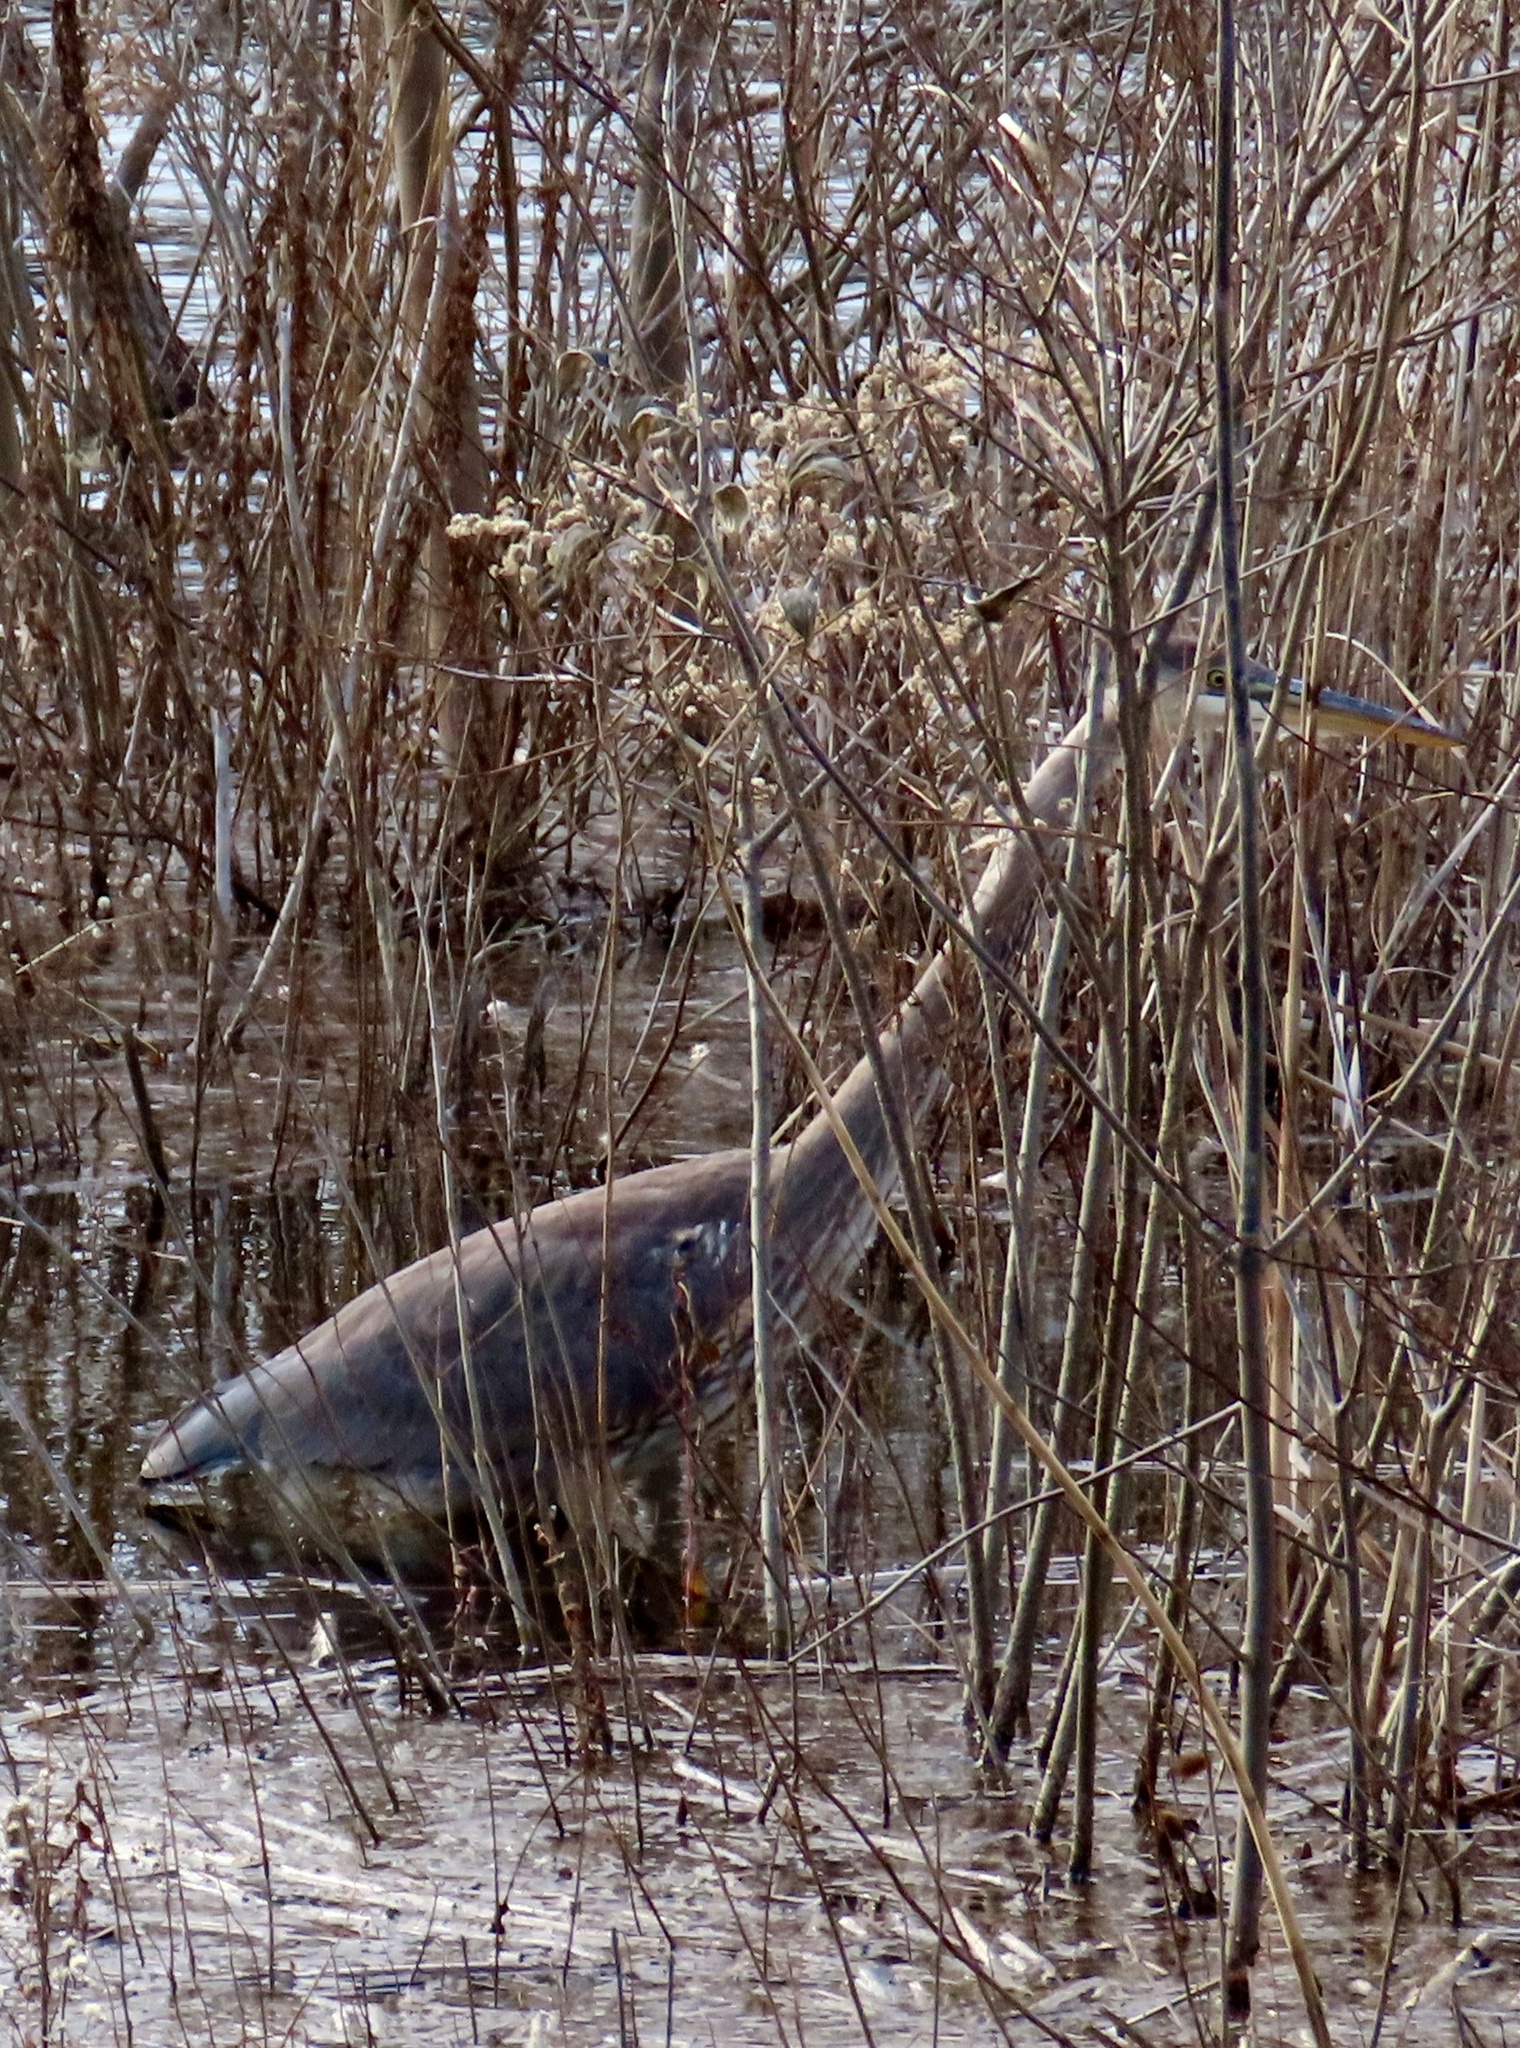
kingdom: Animalia
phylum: Chordata
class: Aves
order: Pelecaniformes
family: Ardeidae
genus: Ardea
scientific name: Ardea herodias
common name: Great blue heron
